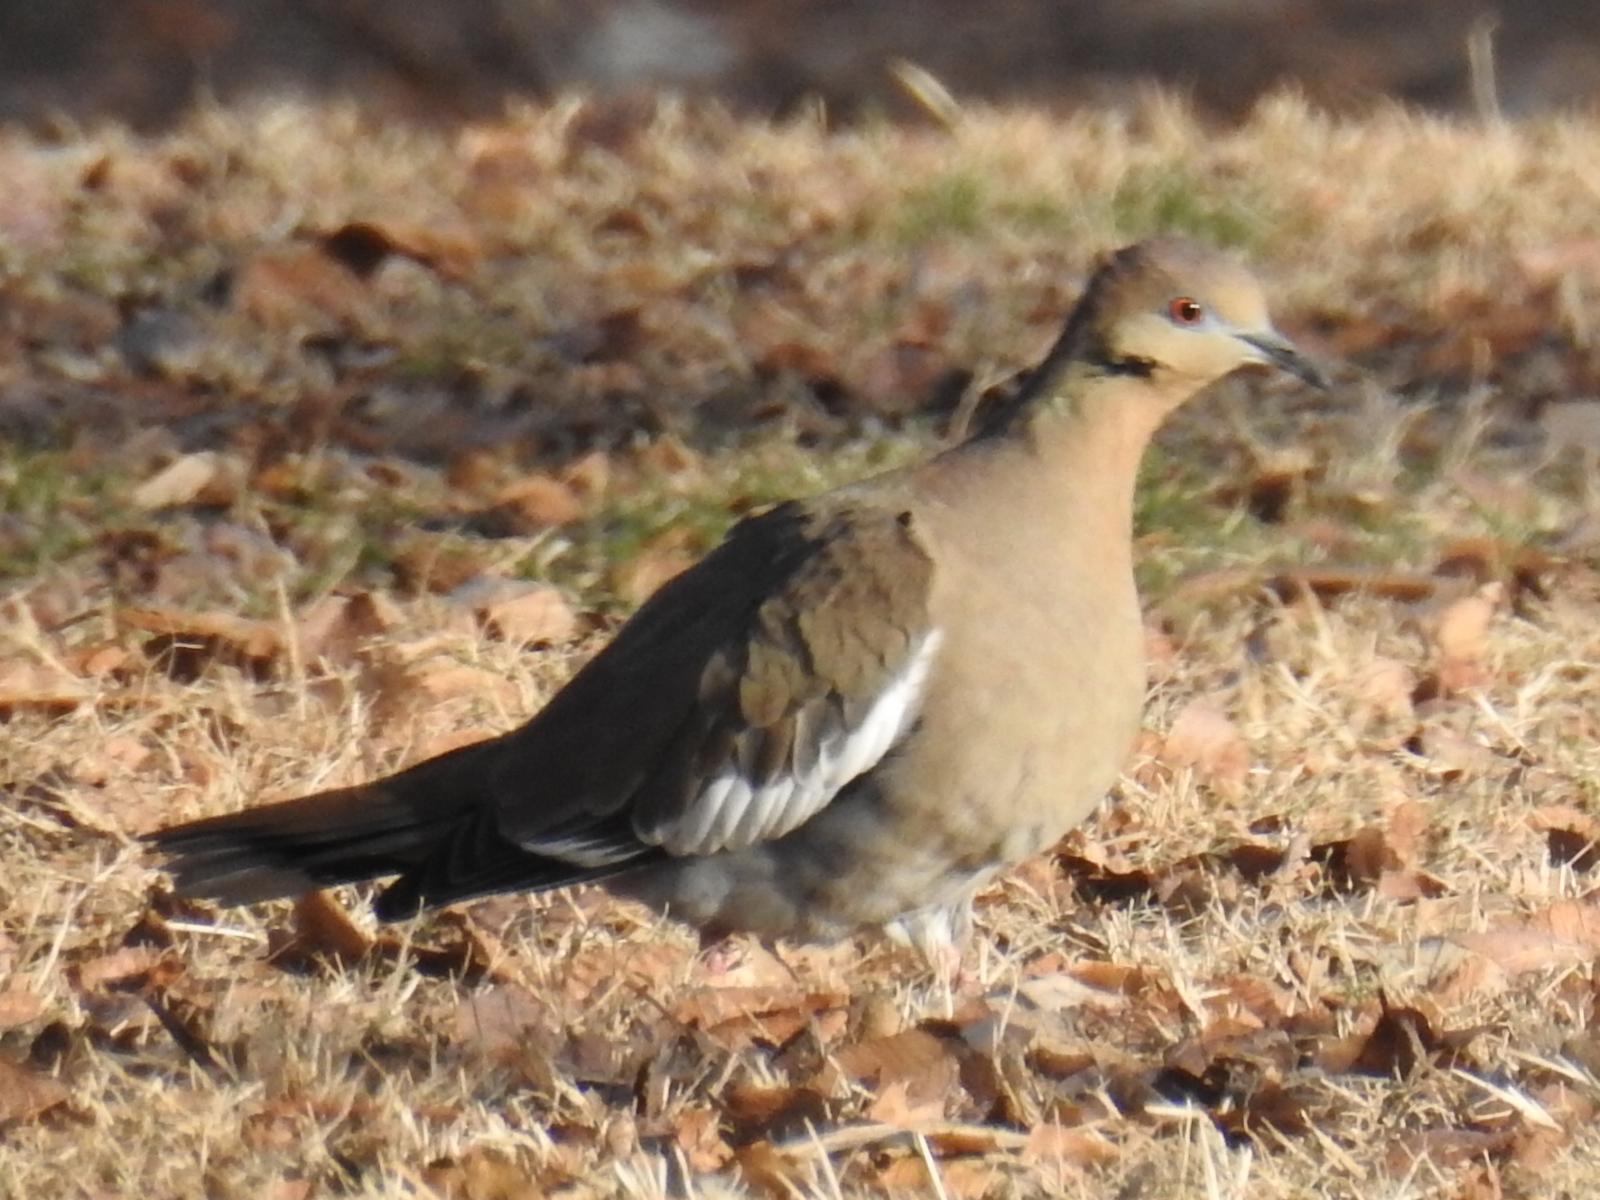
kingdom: Animalia
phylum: Chordata
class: Aves
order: Columbiformes
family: Columbidae
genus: Zenaida
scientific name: Zenaida asiatica
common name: White-winged dove
